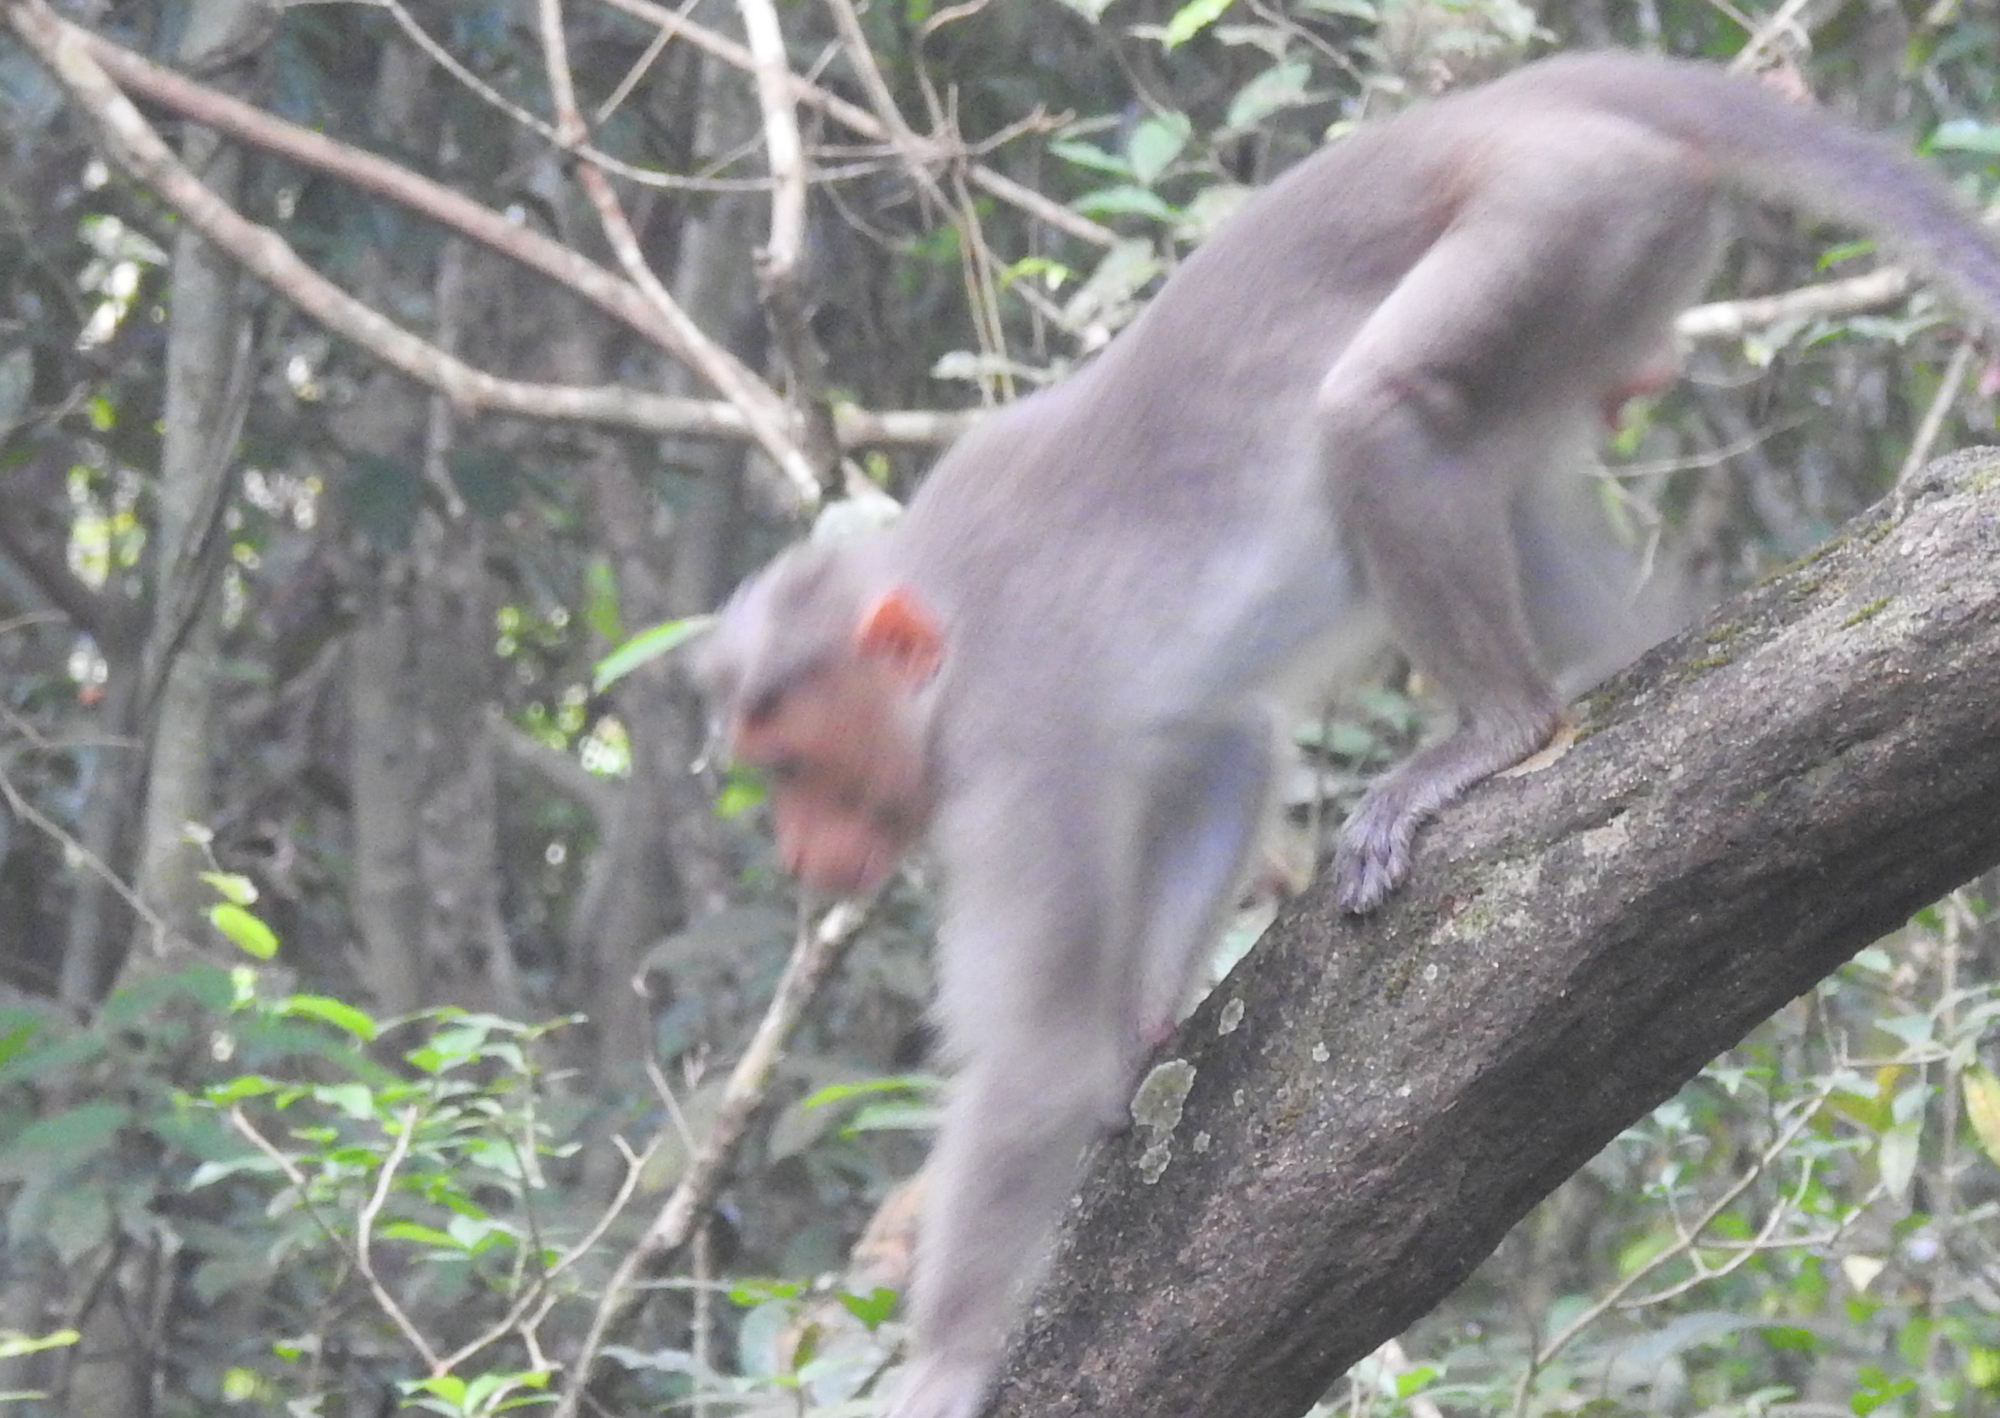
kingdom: Animalia
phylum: Chordata
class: Mammalia
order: Primates
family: Cercopithecidae
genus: Macaca
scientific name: Macaca radiata
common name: Bonnet macaque
